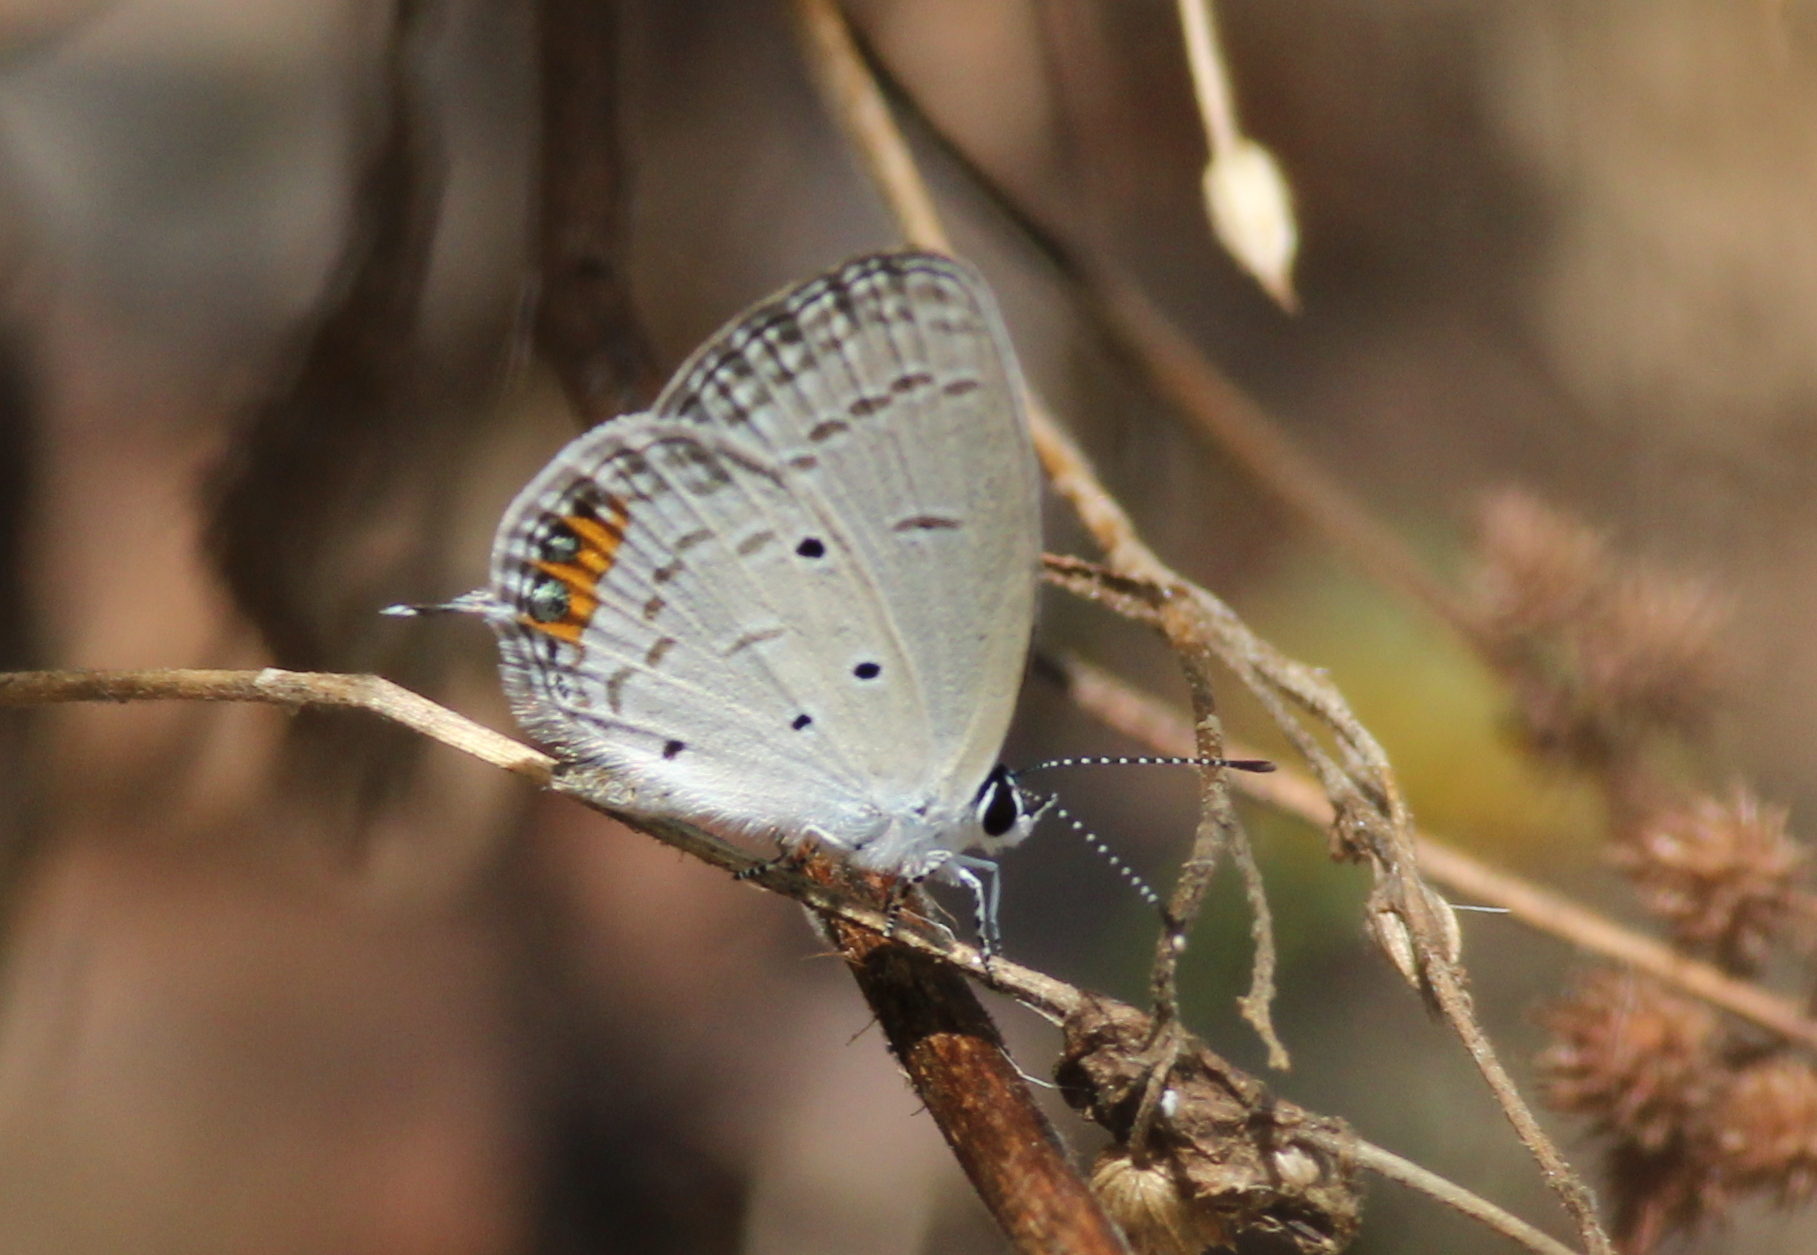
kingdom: Animalia
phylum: Arthropoda
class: Insecta
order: Lepidoptera
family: Lycaenidae
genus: Everes
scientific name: Everes lacturnus
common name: Orange-tipped pea-blue
